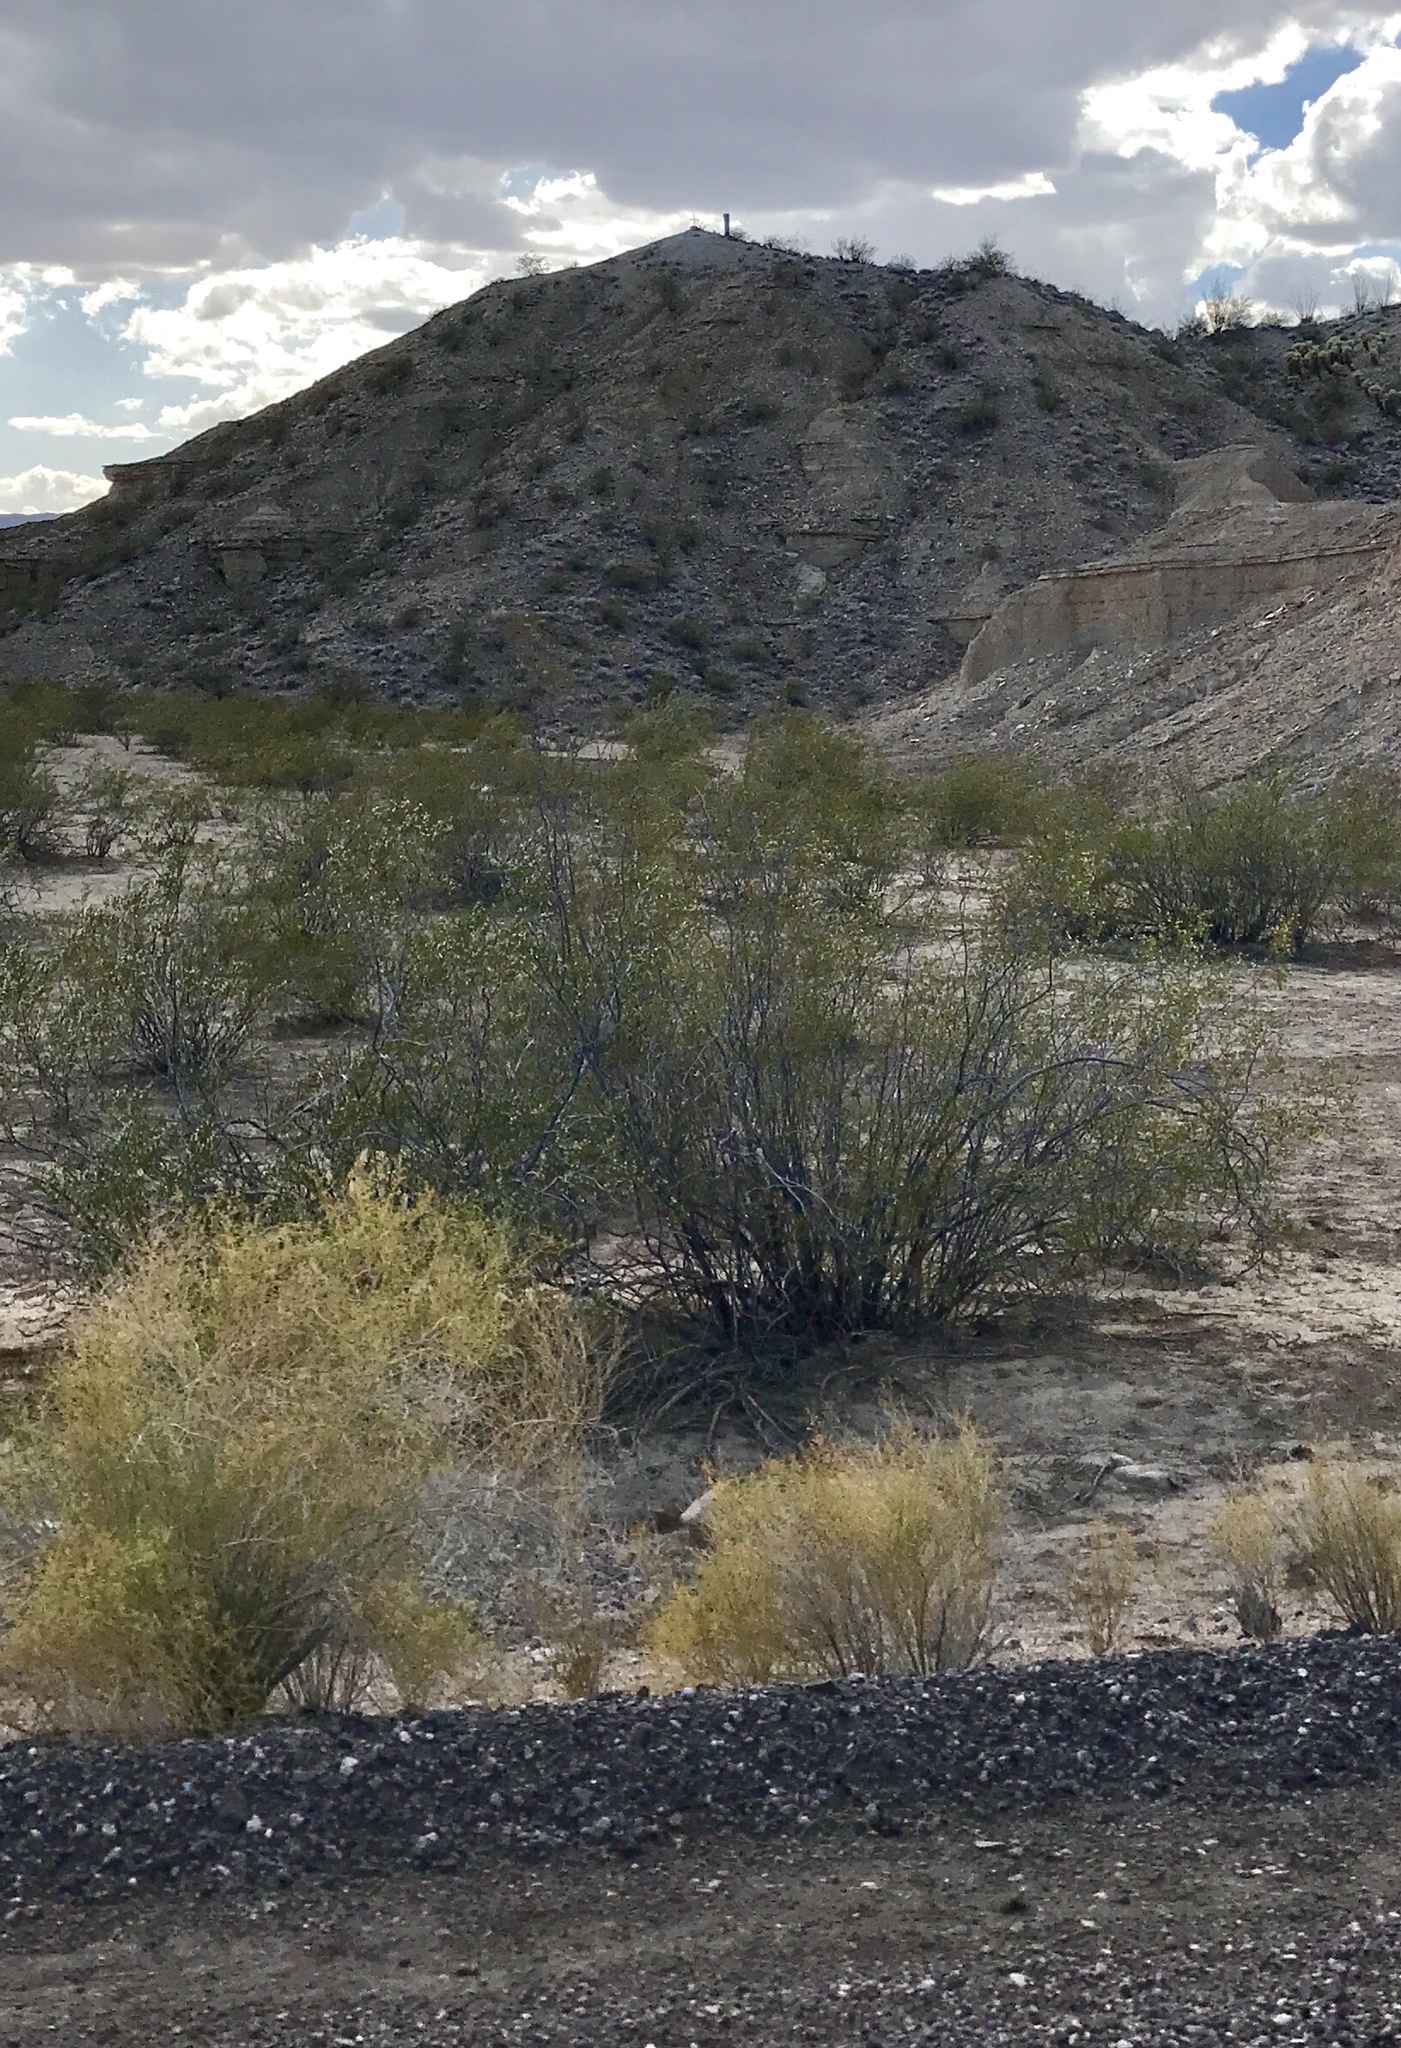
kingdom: Plantae
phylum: Tracheophyta
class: Magnoliopsida
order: Zygophyllales
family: Zygophyllaceae
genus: Larrea
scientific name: Larrea tridentata
